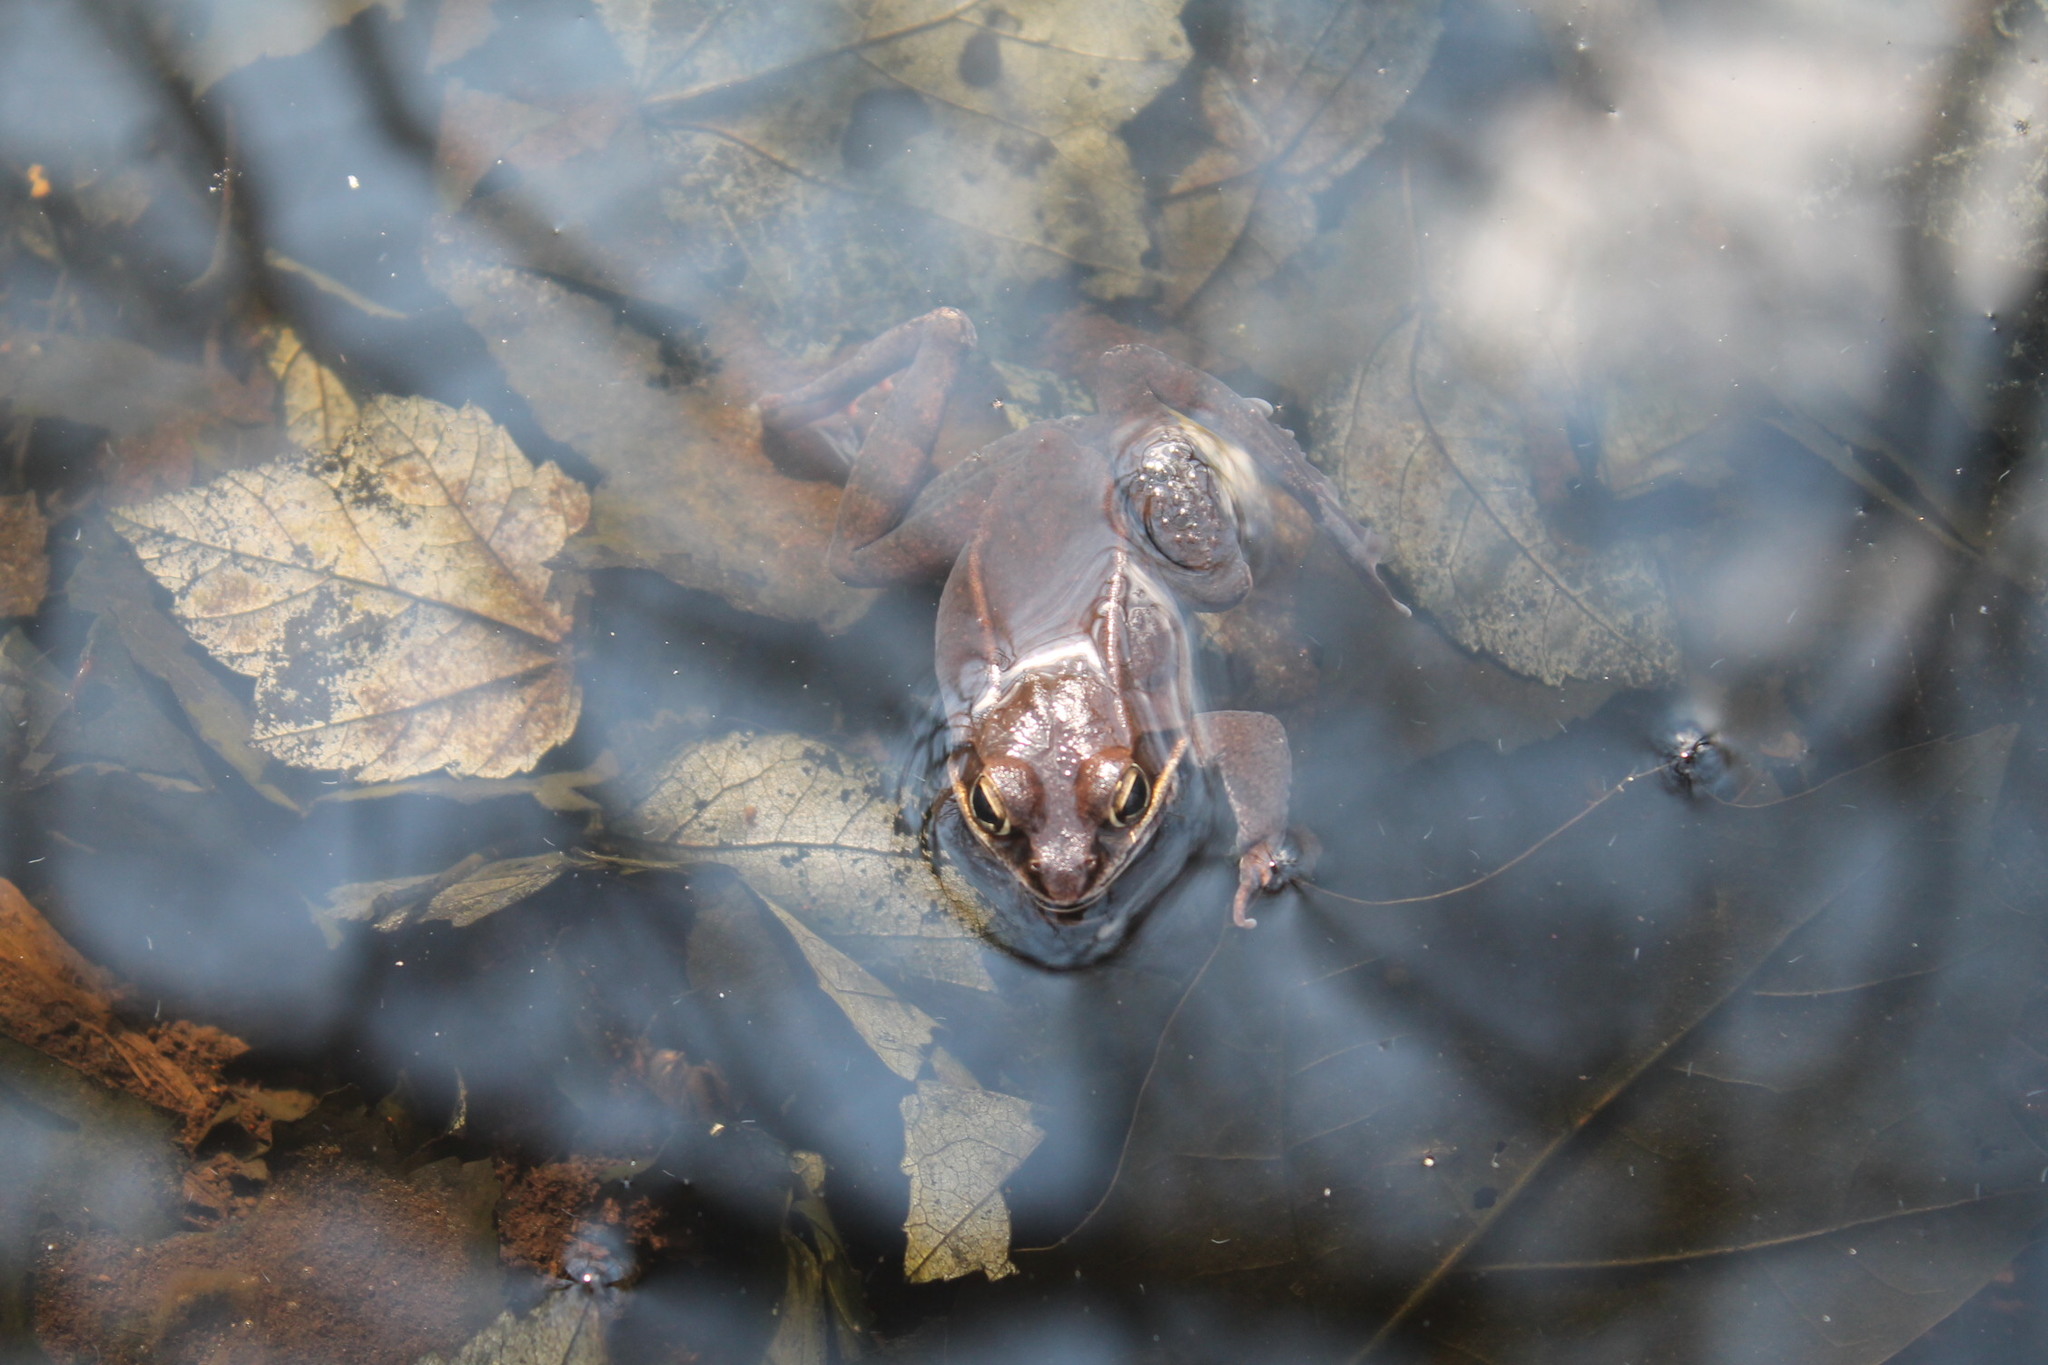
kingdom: Animalia
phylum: Chordata
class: Amphibia
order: Anura
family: Ranidae
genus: Lithobates
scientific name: Lithobates sylvaticus
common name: Wood frog
